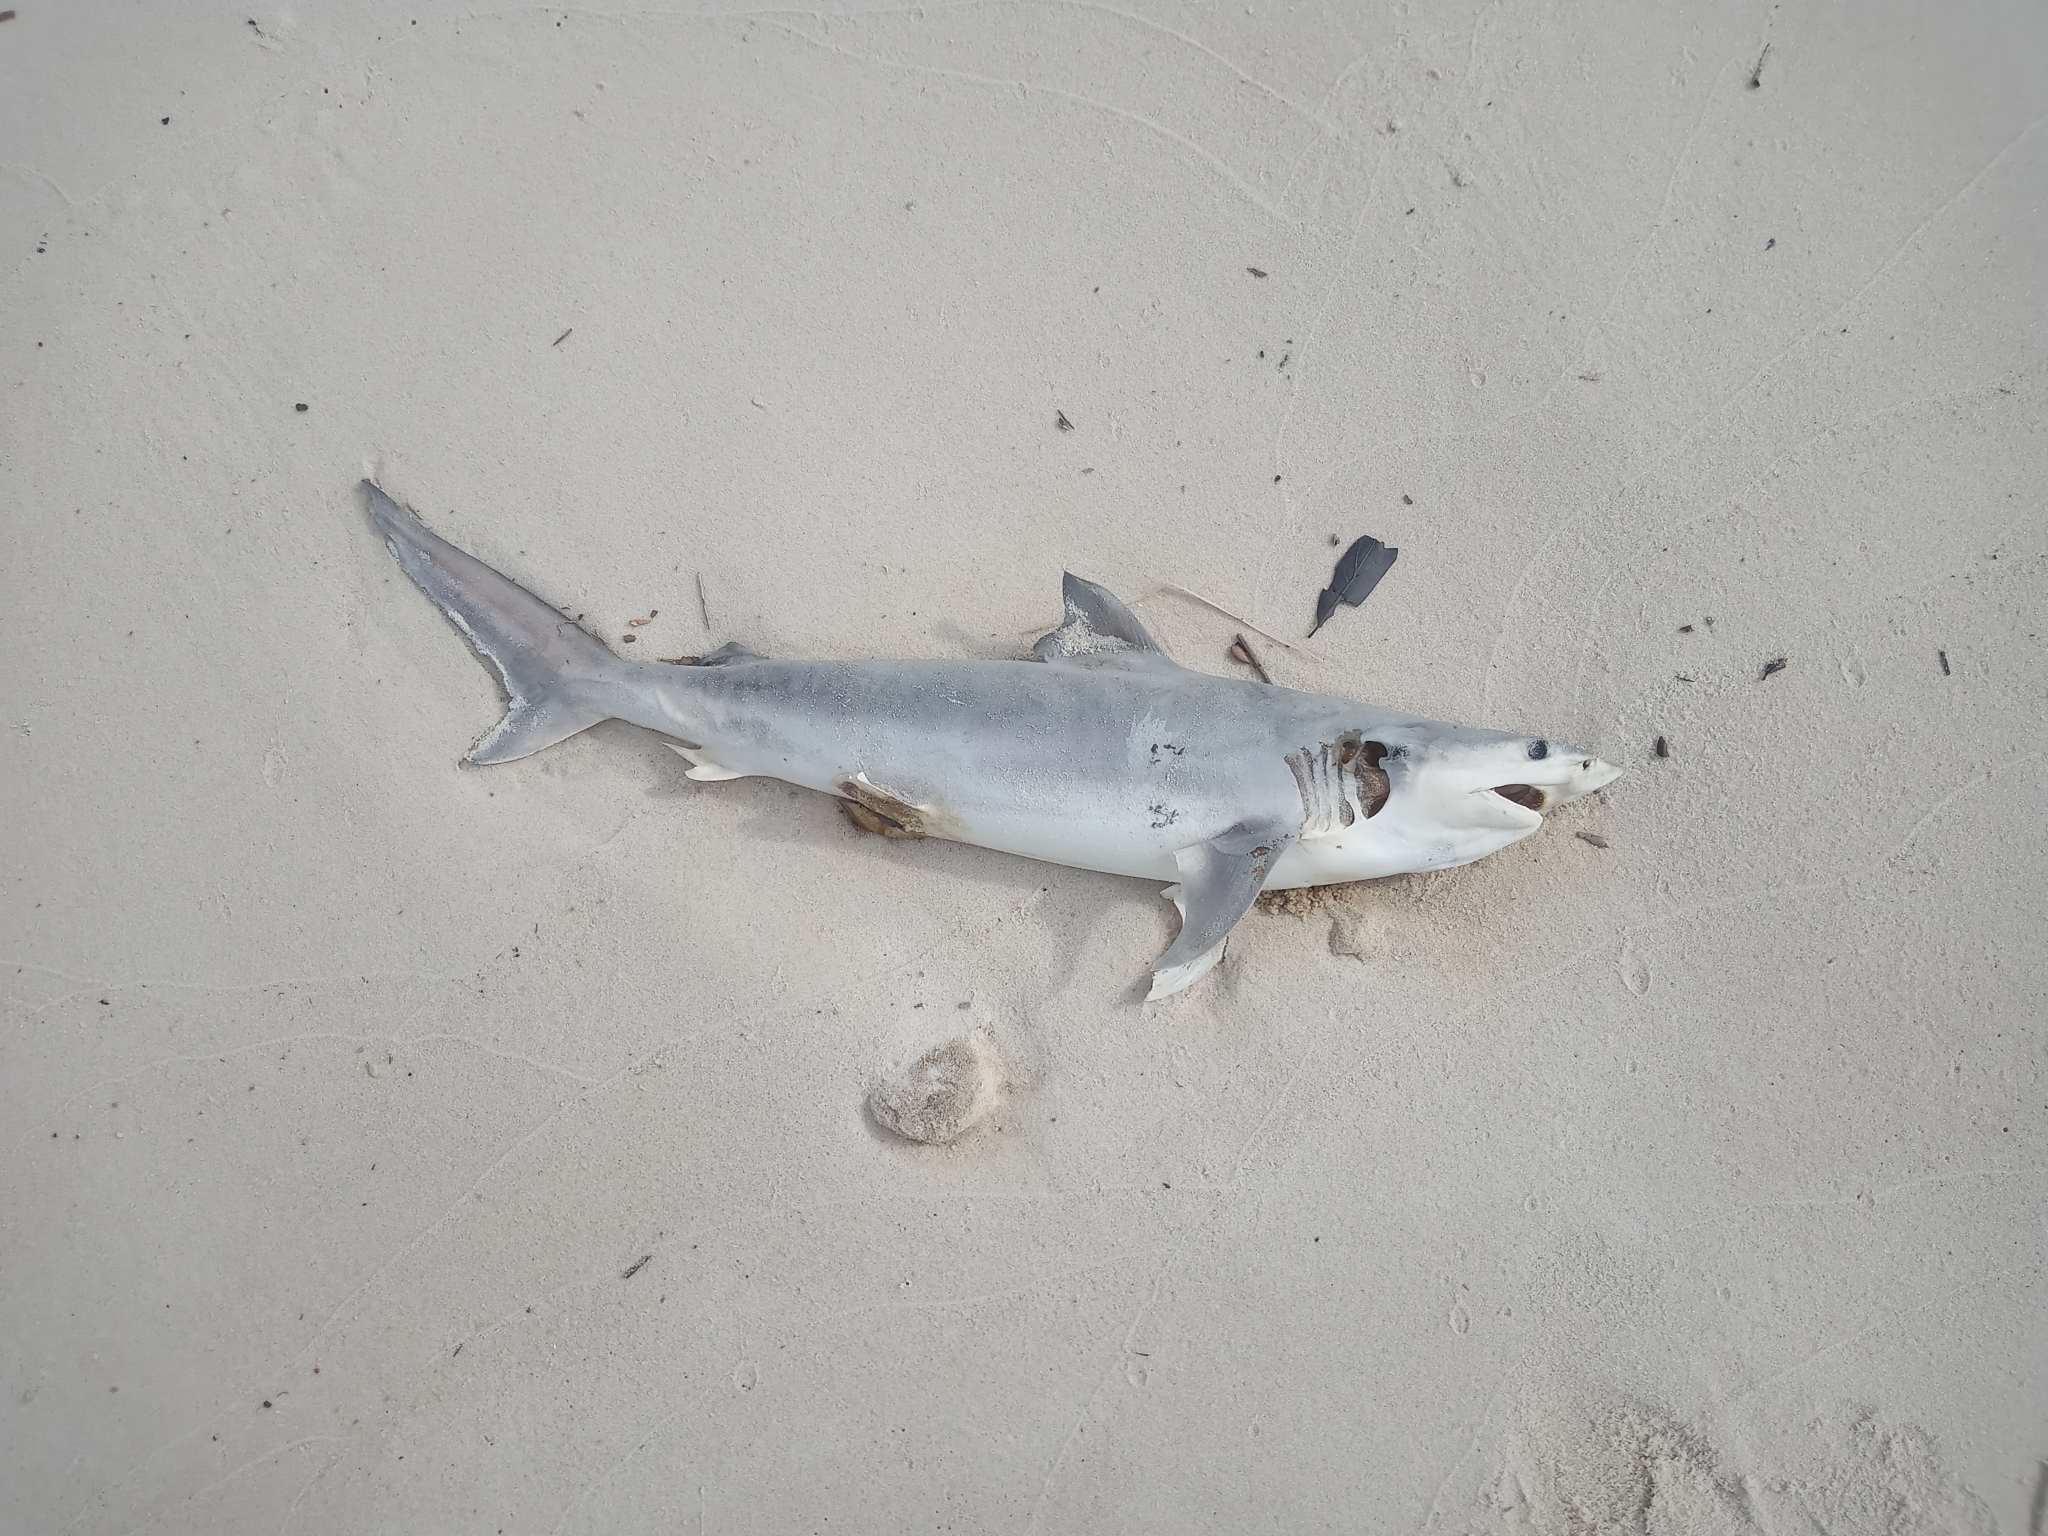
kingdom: Animalia
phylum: Chordata
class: Elasmobranchii
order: Carcharhiniformes
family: Carcharhinidae
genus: Carcharhinus
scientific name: Carcharhinus isodon
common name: Finetooth shark
